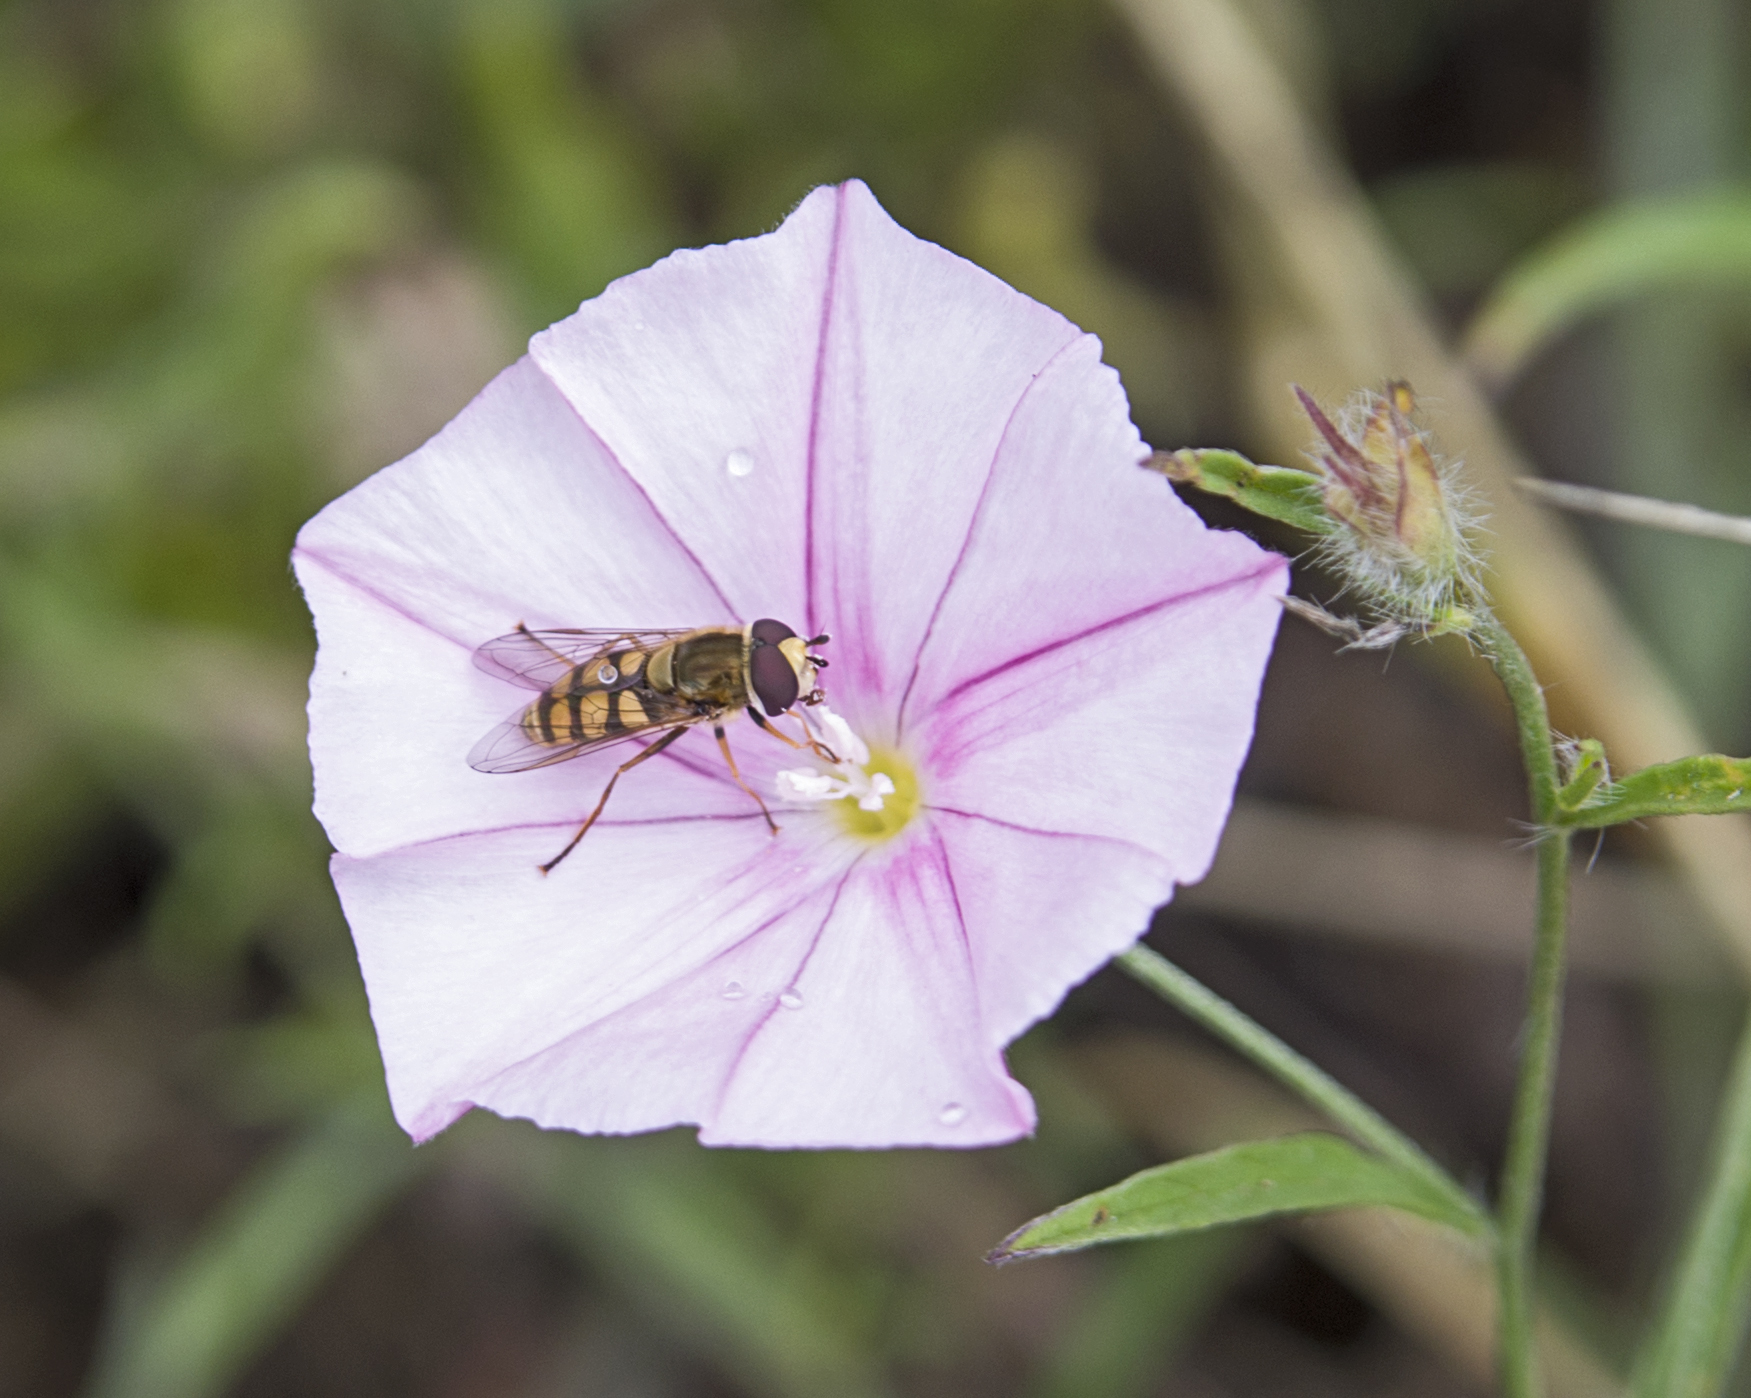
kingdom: Animalia
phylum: Arthropoda
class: Insecta
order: Diptera
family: Syrphidae
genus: Eupeodes
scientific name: Eupeodes corollae
